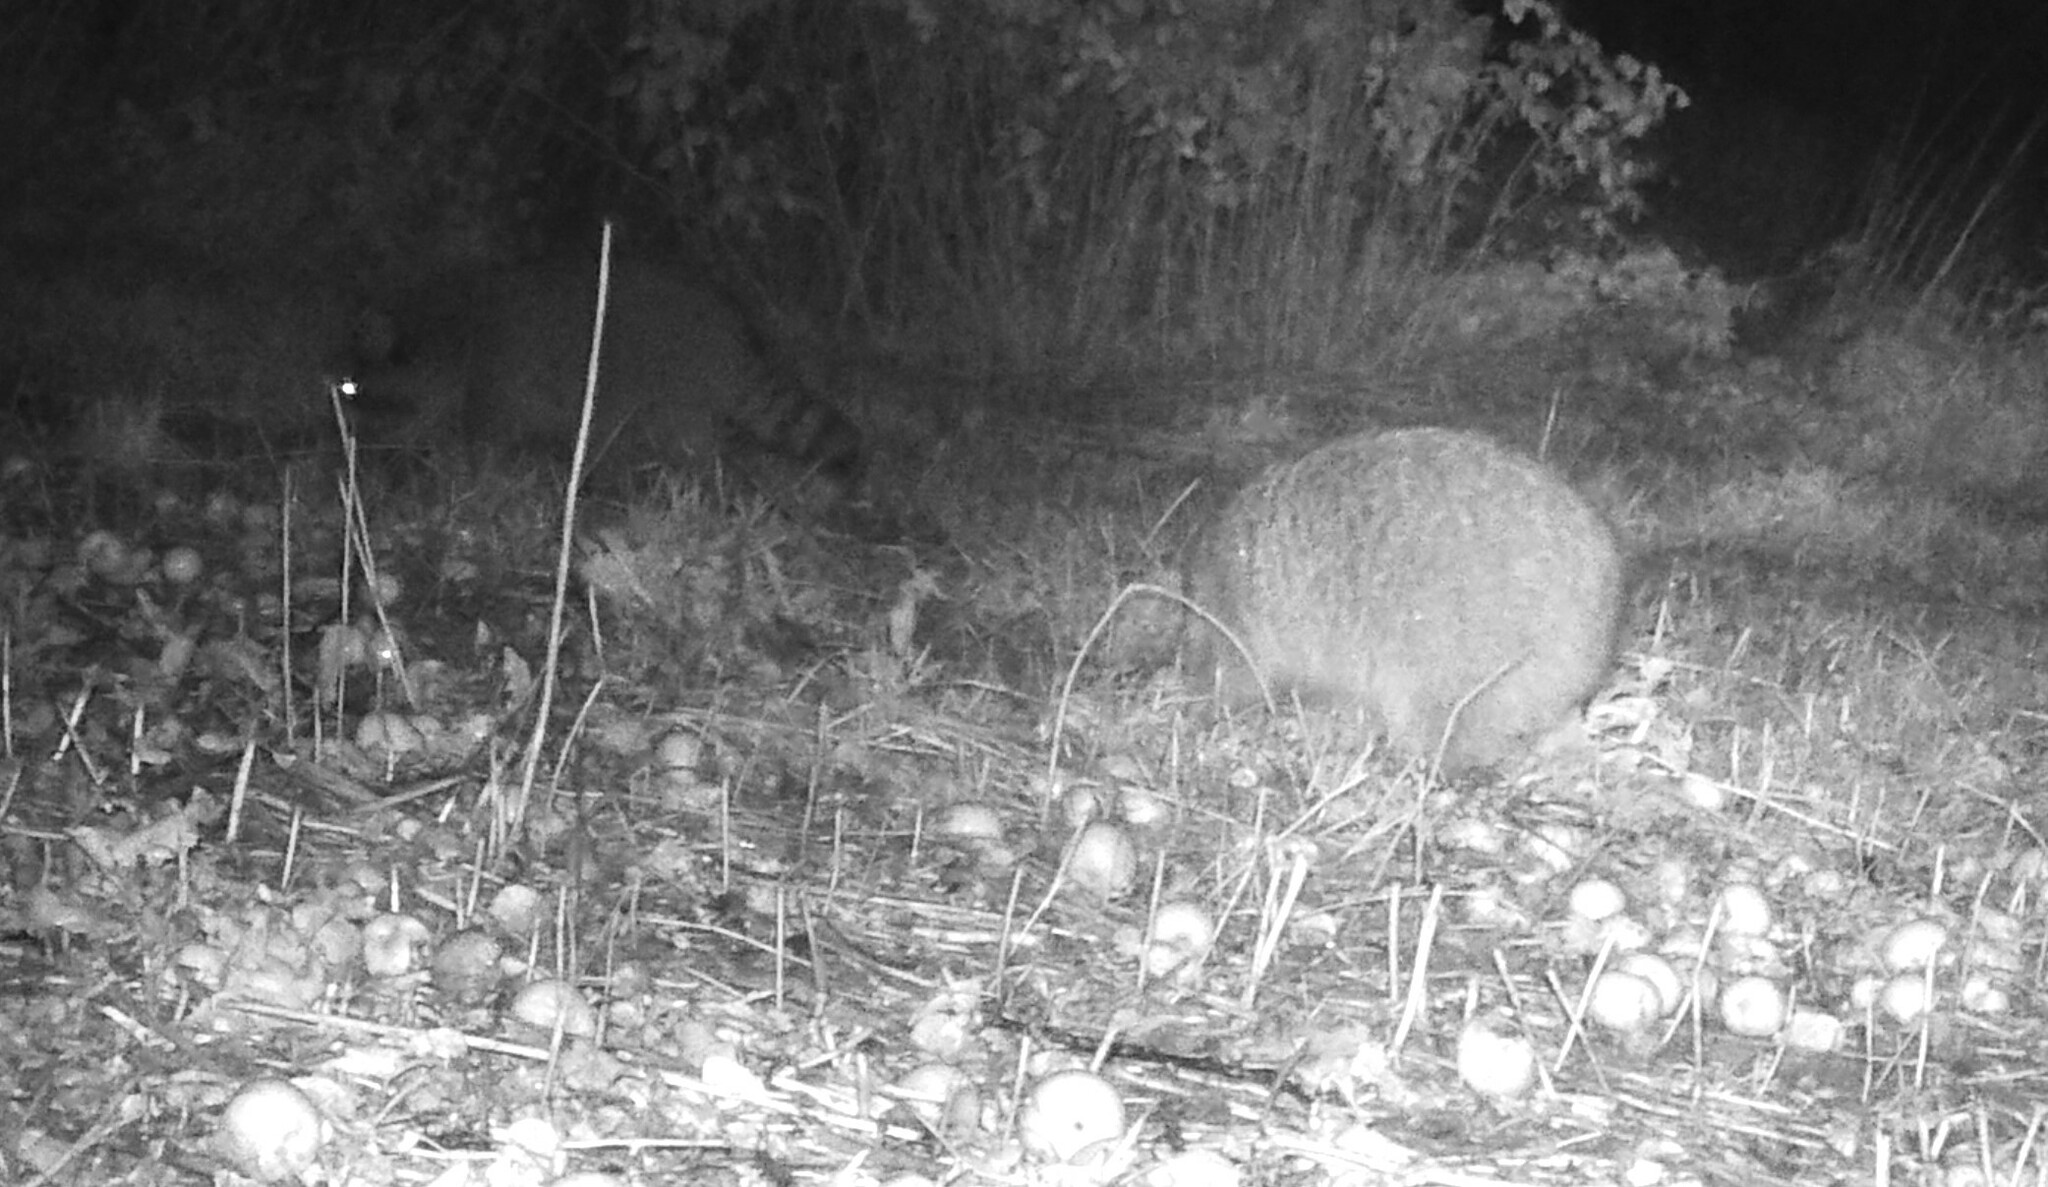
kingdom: Animalia
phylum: Chordata
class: Mammalia
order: Carnivora
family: Procyonidae
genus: Procyon
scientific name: Procyon lotor
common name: Raccoon
